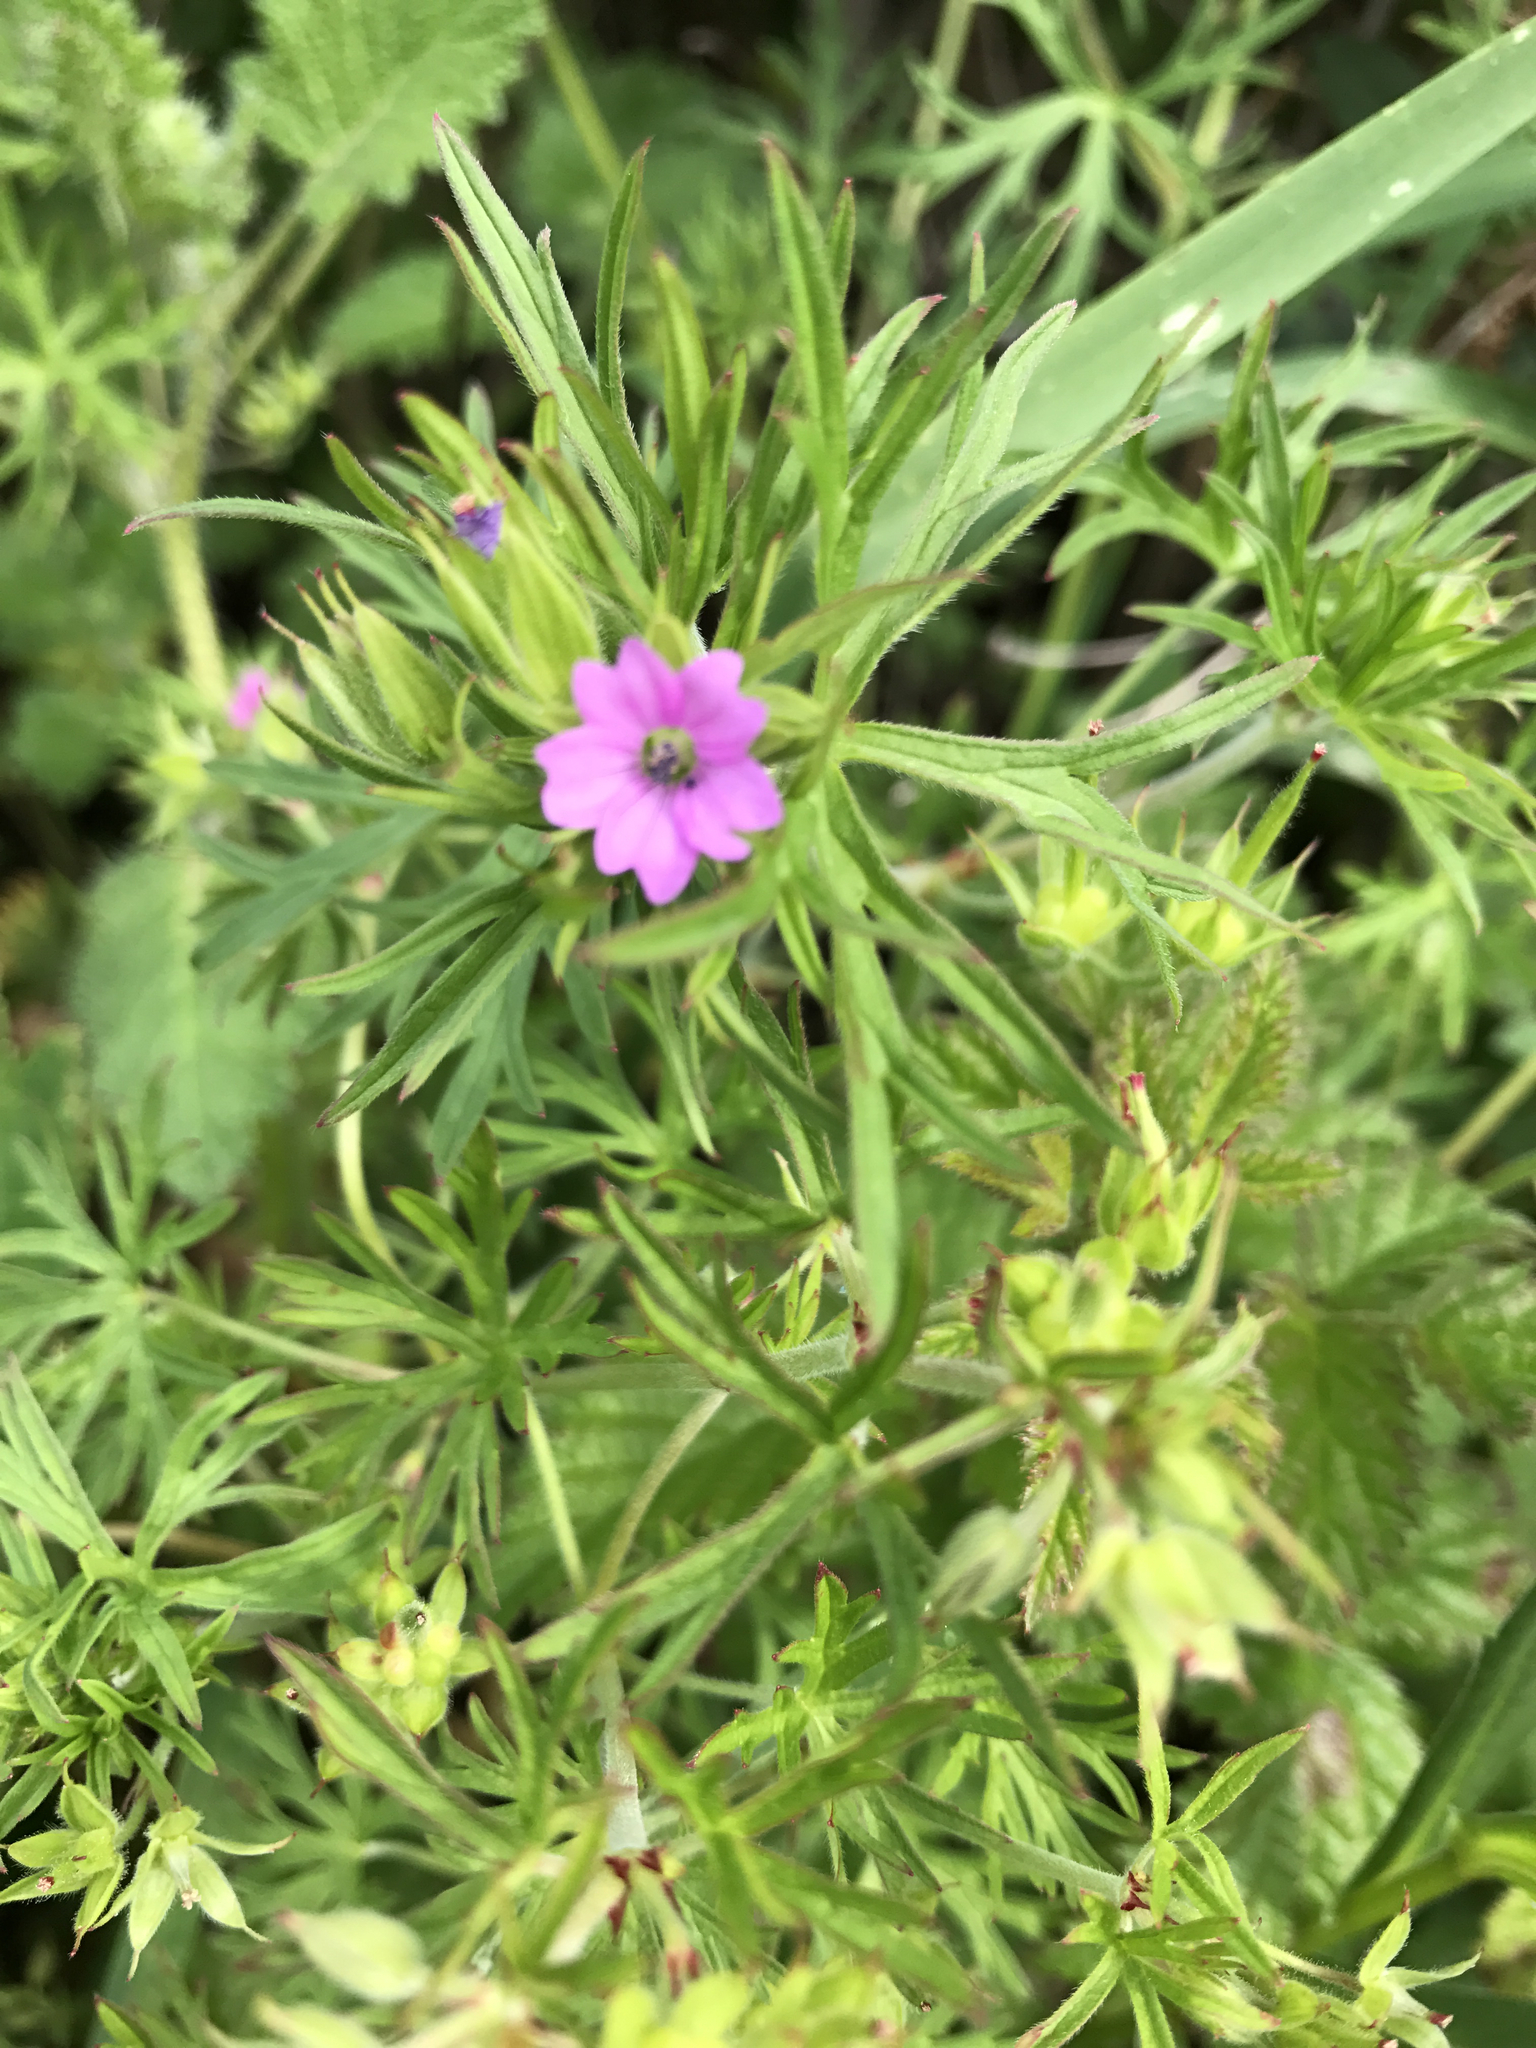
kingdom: Plantae
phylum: Tracheophyta
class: Magnoliopsida
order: Geraniales
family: Geraniaceae
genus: Geranium
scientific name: Geranium dissectum
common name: Cut-leaved crane's-bill
